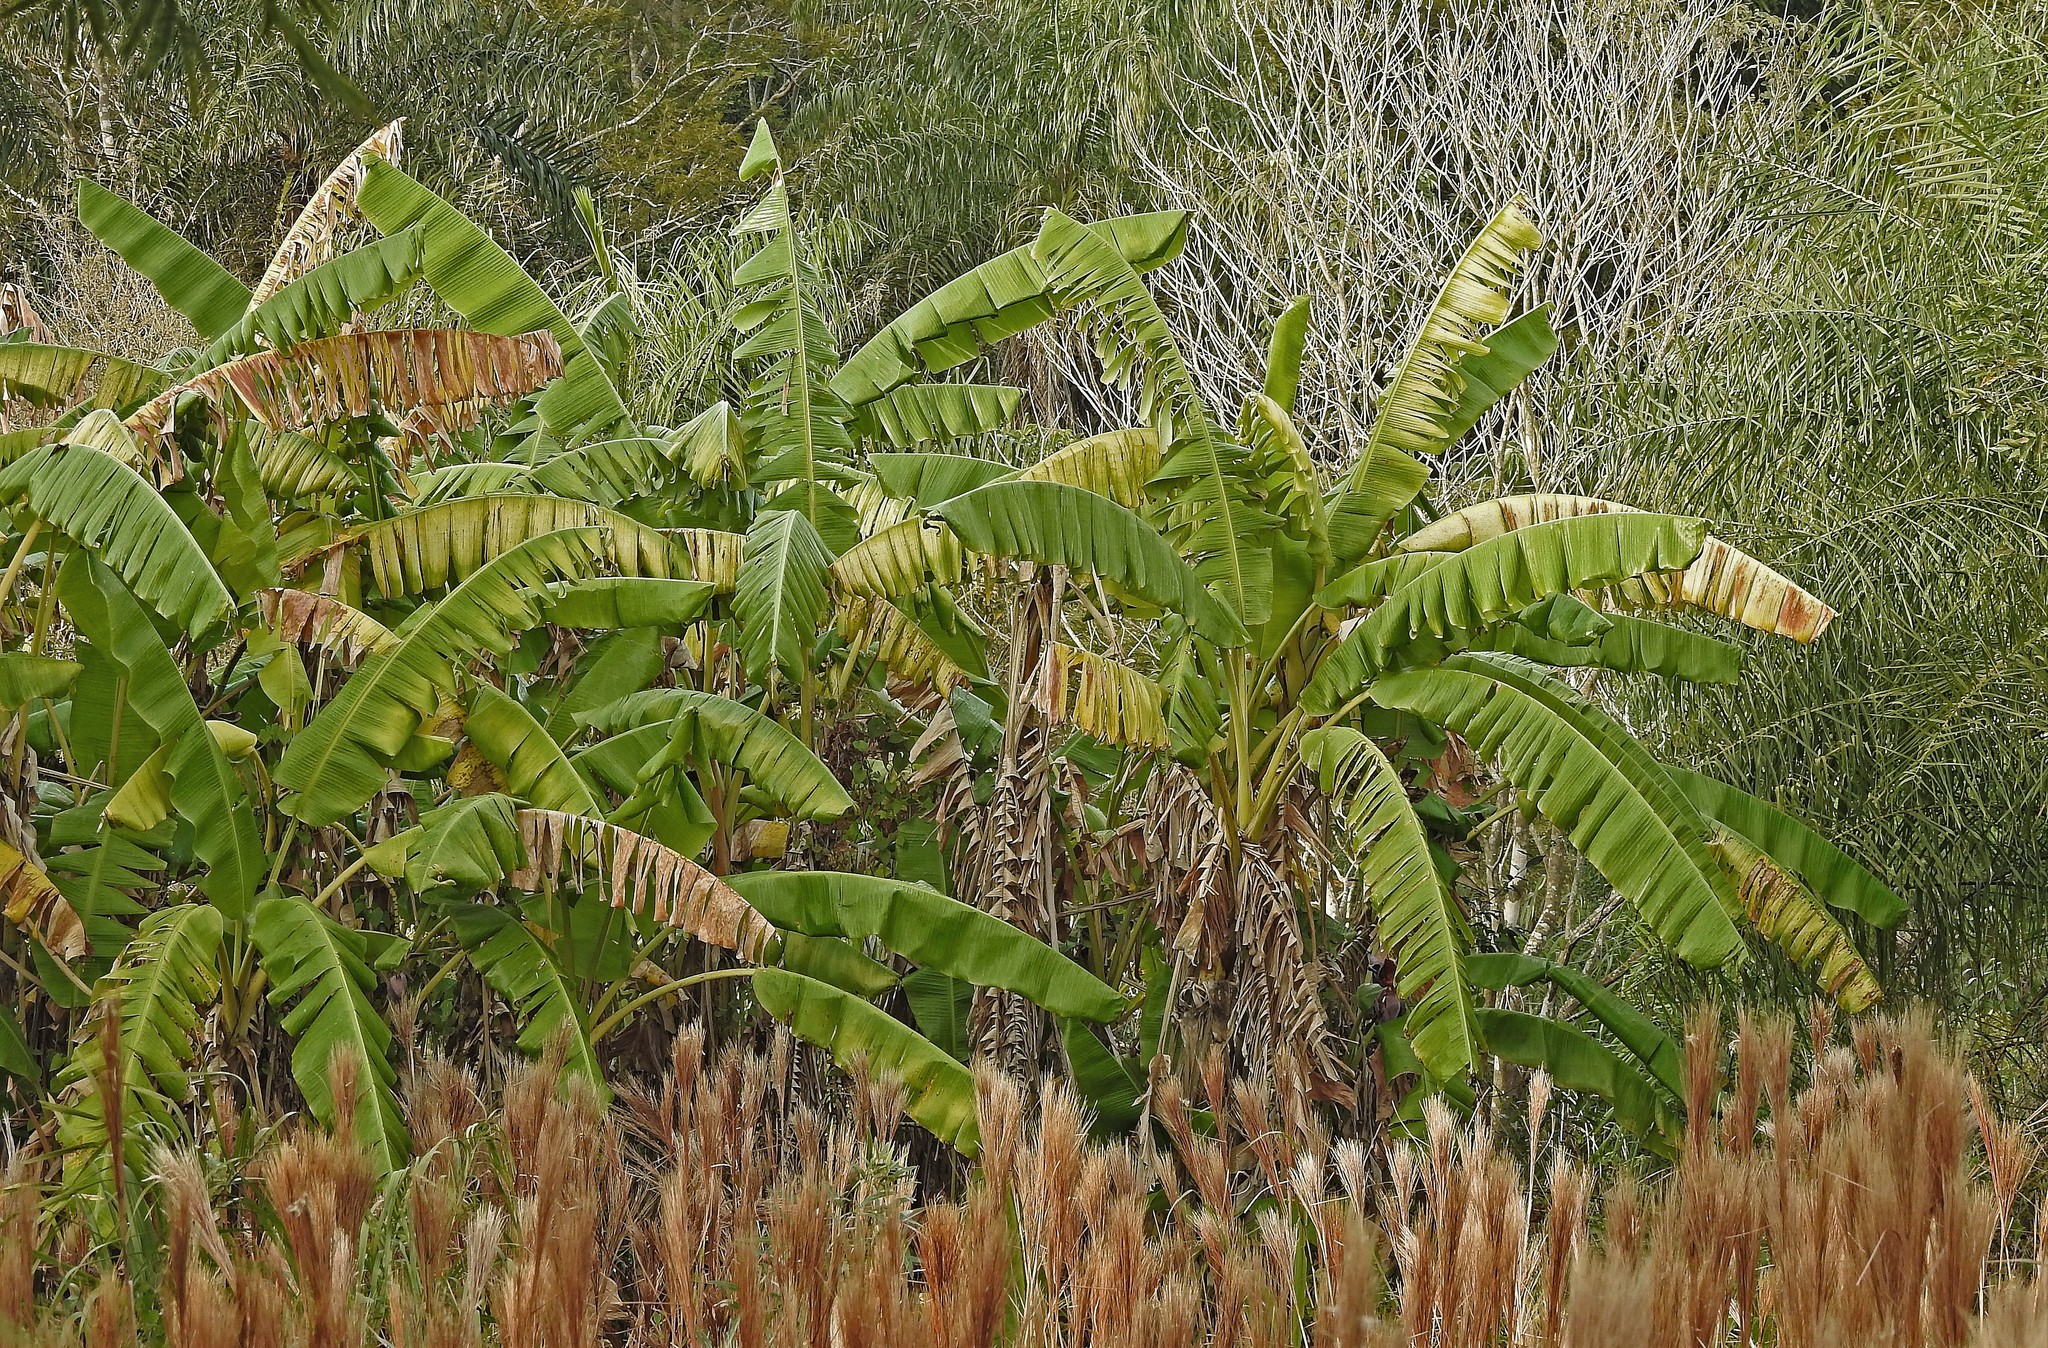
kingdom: Plantae
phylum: Tracheophyta
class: Liliopsida
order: Zingiberales
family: Musaceae
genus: Musa
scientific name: Musa paradisiaca
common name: French plantain
